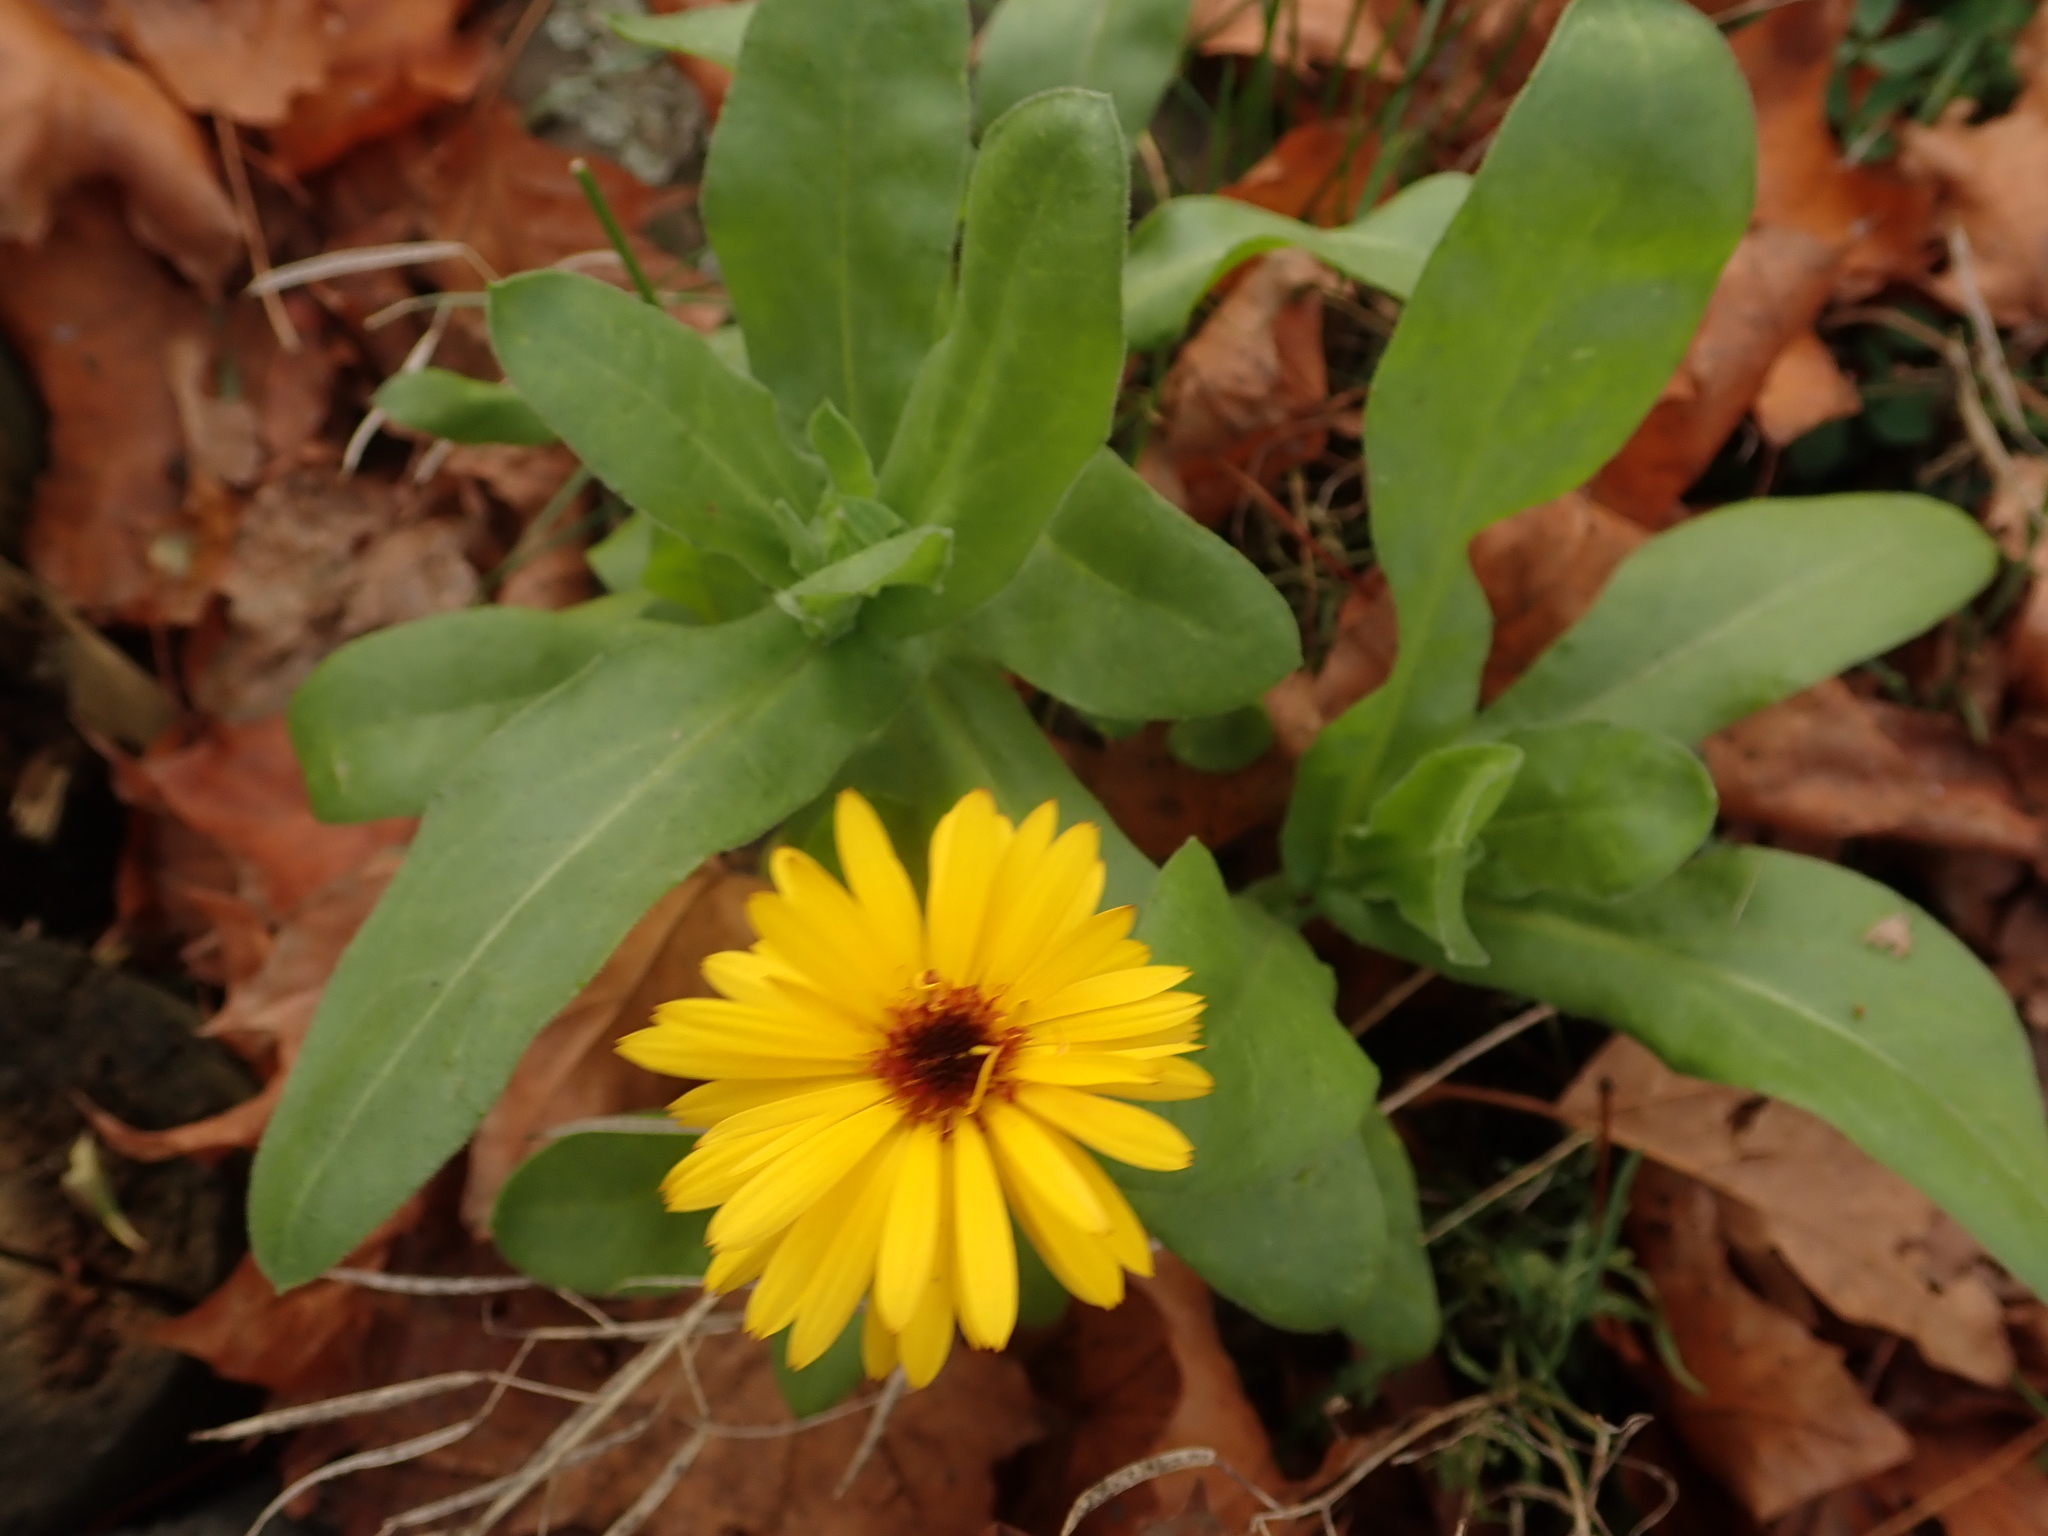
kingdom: Plantae
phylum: Tracheophyta
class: Magnoliopsida
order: Asterales
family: Asteraceae
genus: Calendula
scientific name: Calendula officinalis
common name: Pot marigold
